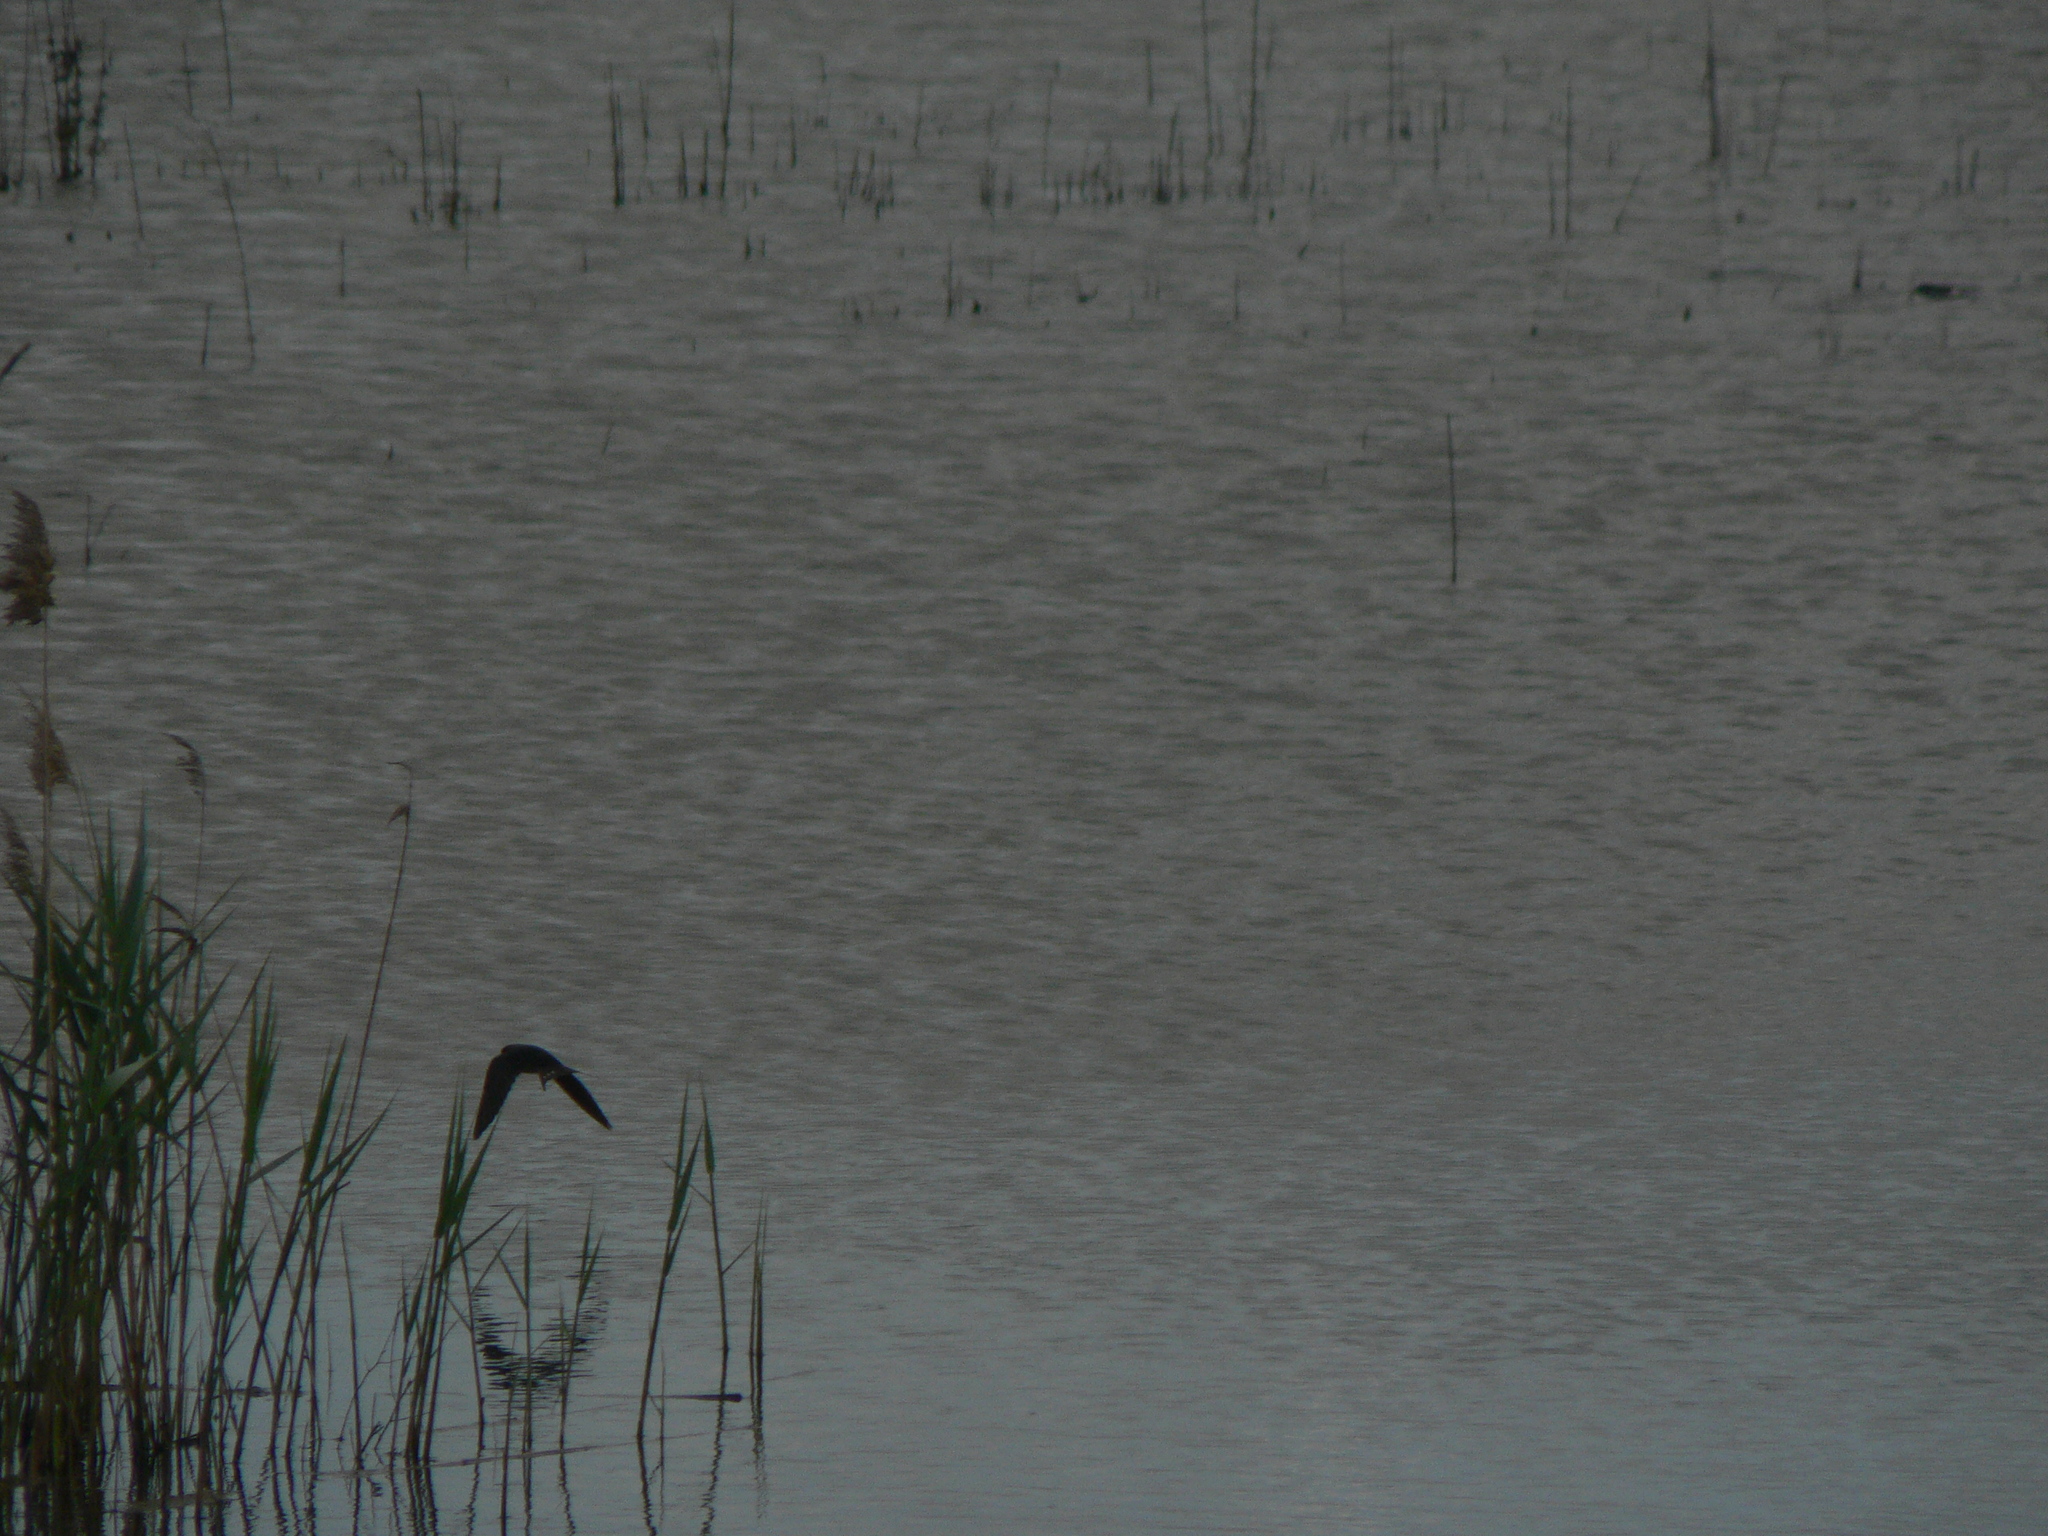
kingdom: Animalia
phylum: Chordata
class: Aves
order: Passeriformes
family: Hirundinidae
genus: Hirundo
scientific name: Hirundo rustica
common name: Barn swallow
